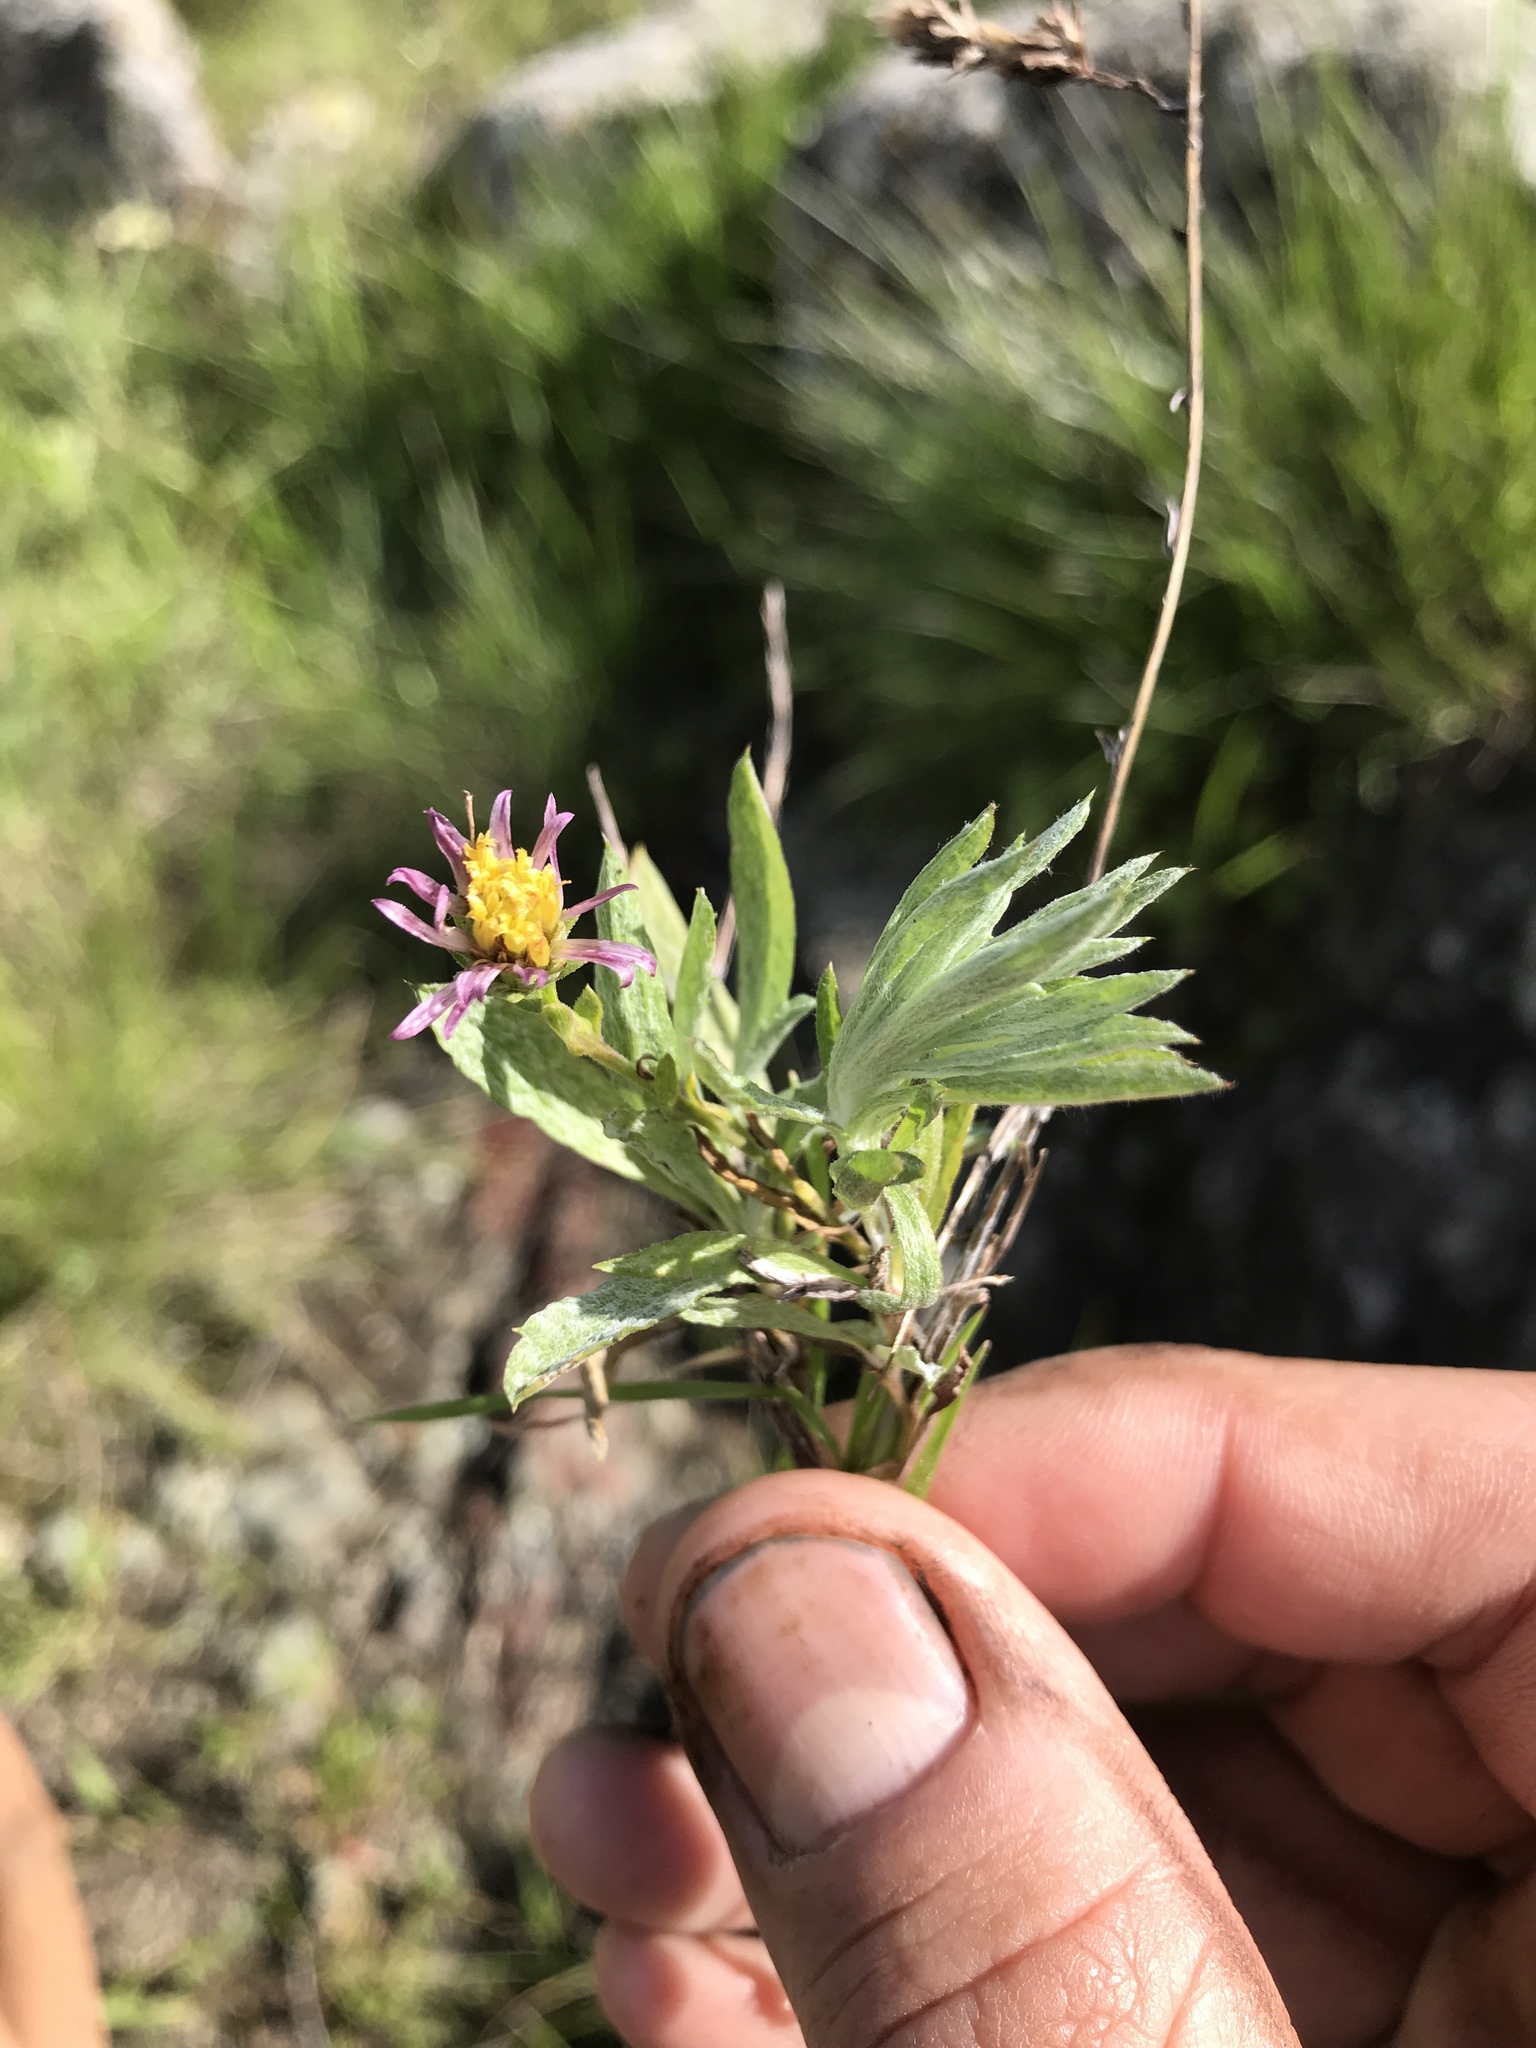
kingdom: Plantae
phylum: Tracheophyta
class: Magnoliopsida
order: Asterales
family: Asteraceae
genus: Corethrogyne
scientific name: Corethrogyne filaginifolia
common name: Sand-aster
